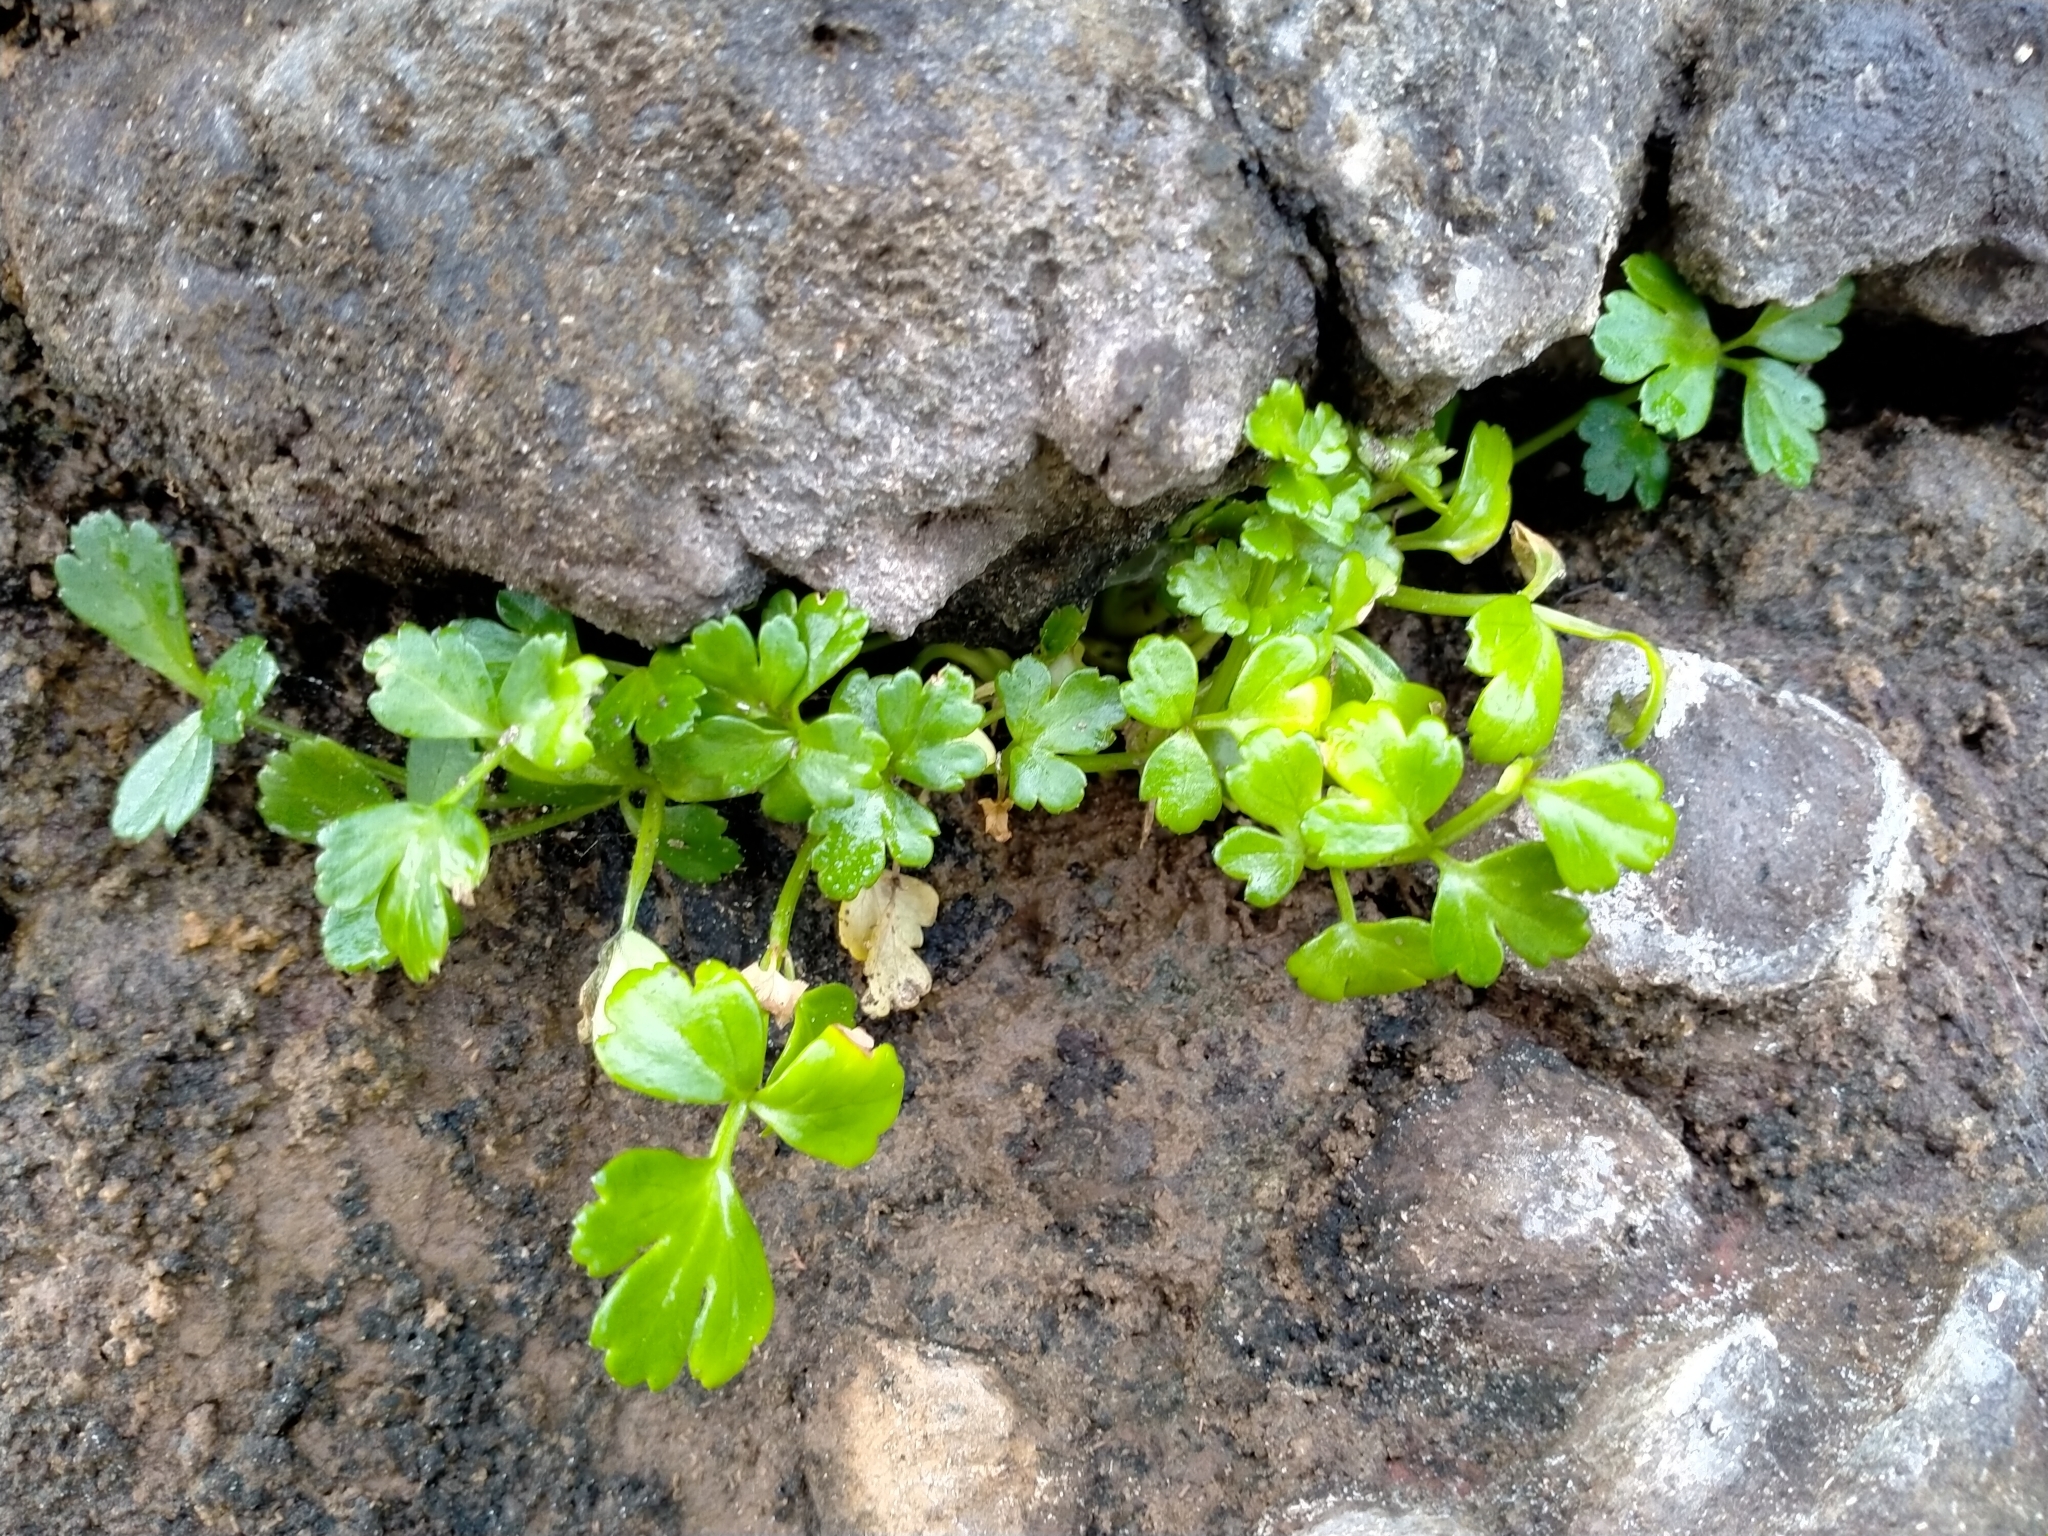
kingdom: Plantae
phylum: Tracheophyta
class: Magnoliopsida
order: Apiales
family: Apiaceae
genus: Apium
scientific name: Apium prostratum
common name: Prostrate marshwort
